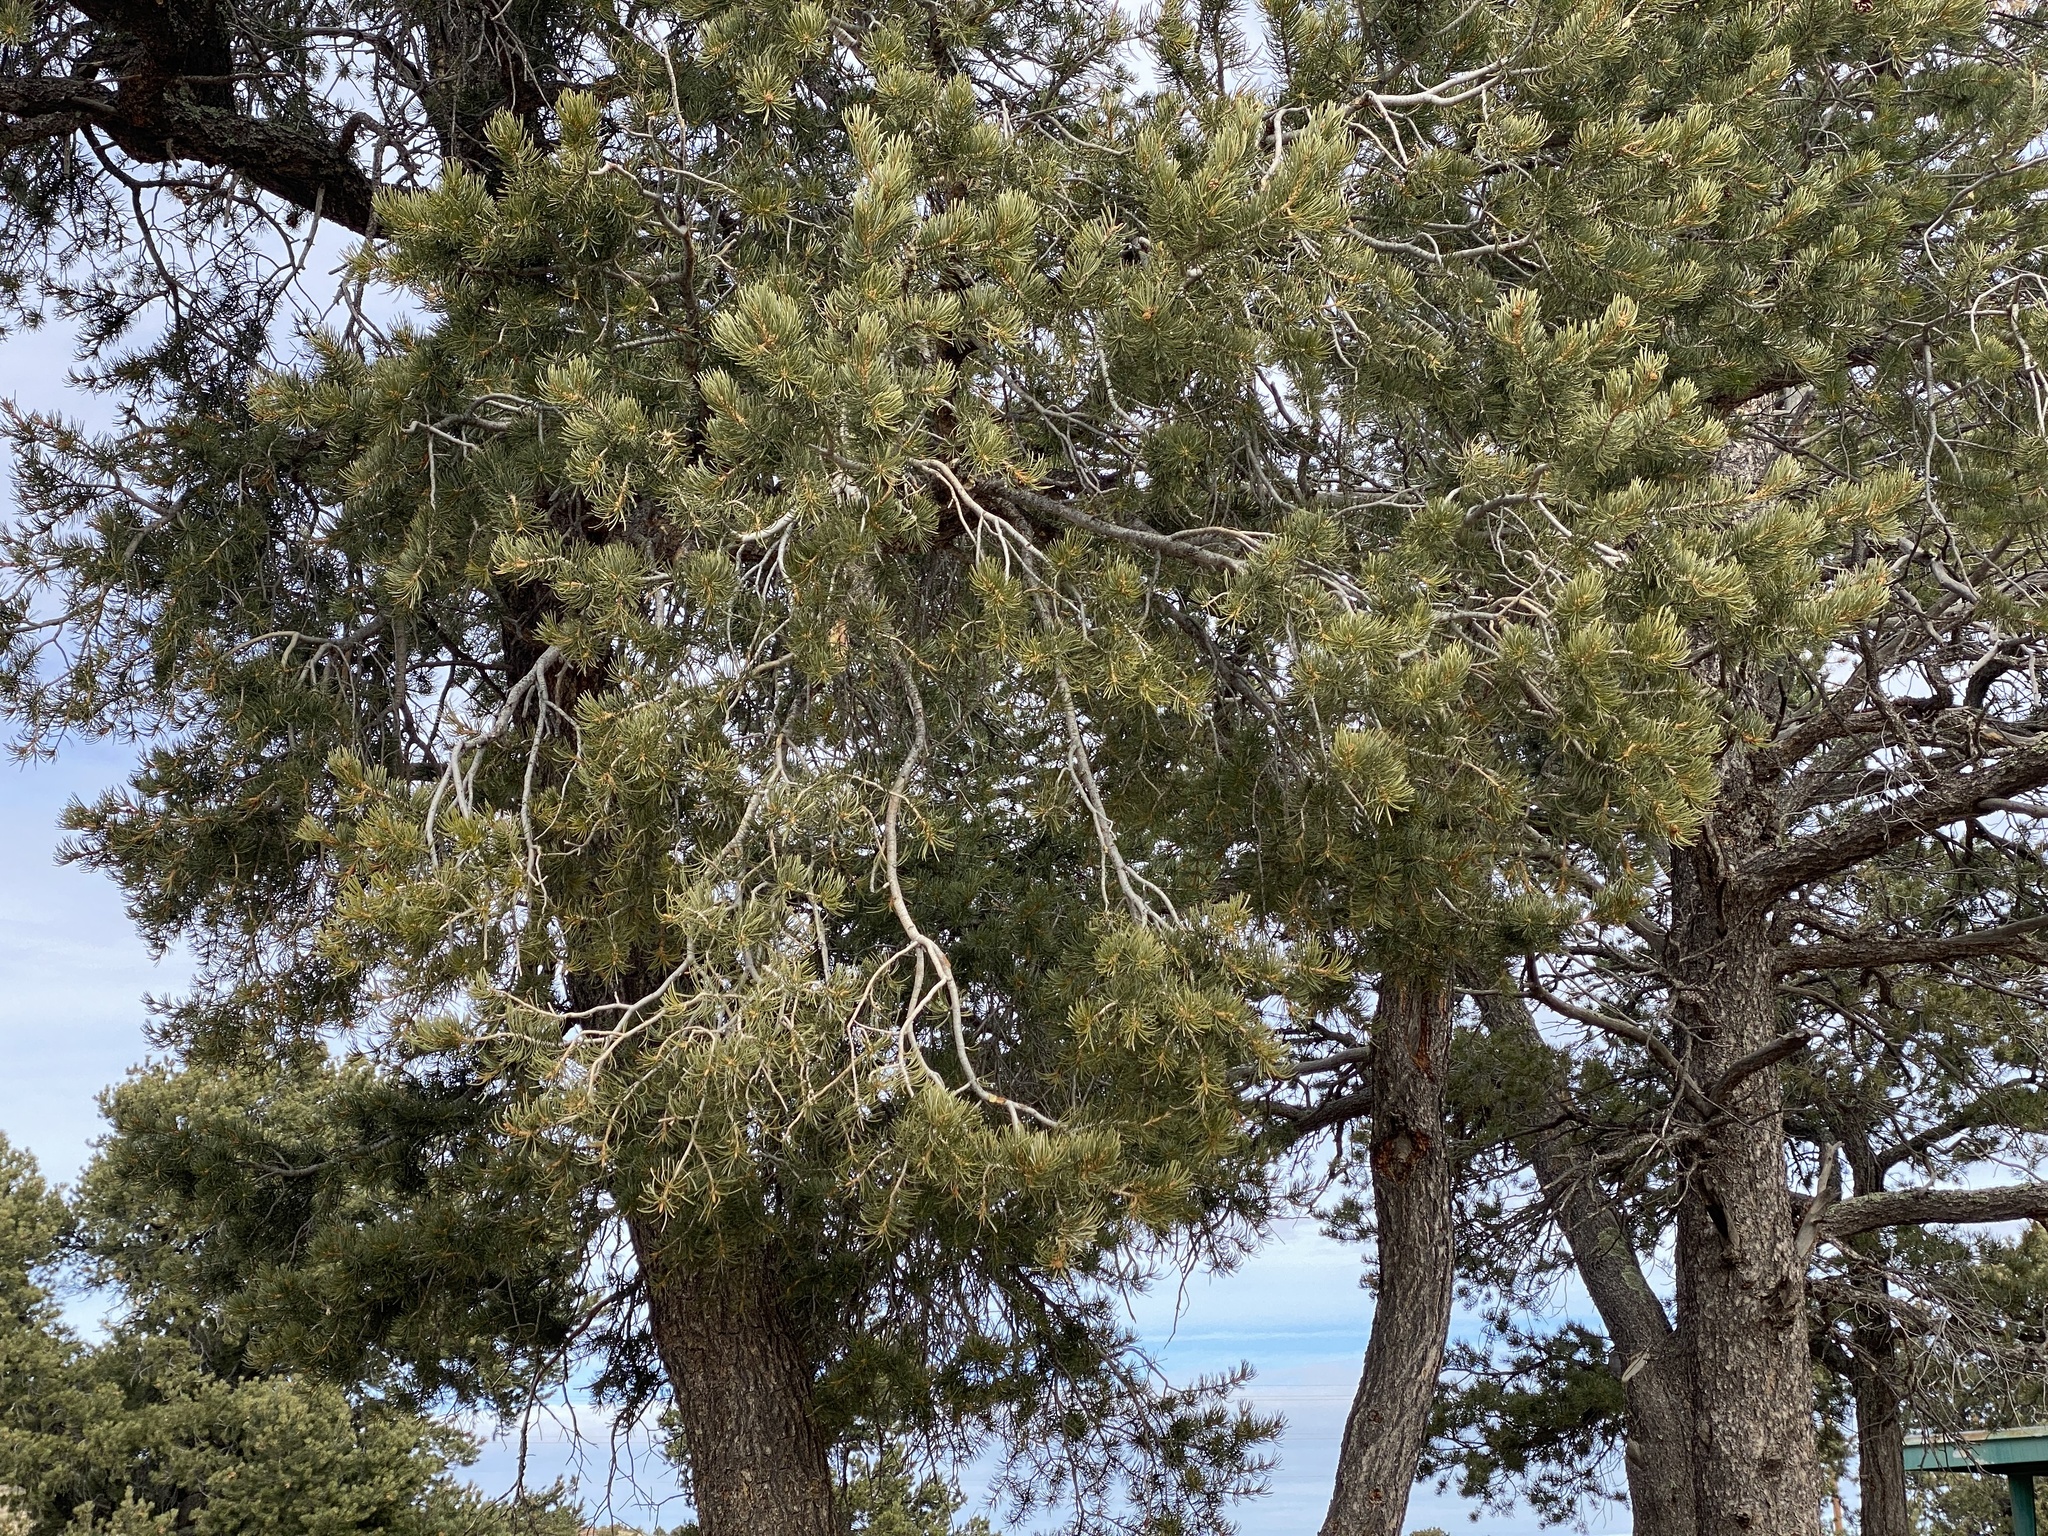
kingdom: Plantae
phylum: Tracheophyta
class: Pinopsida
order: Pinales
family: Pinaceae
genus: Pinus
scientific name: Pinus edulis
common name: Colorado pinyon
